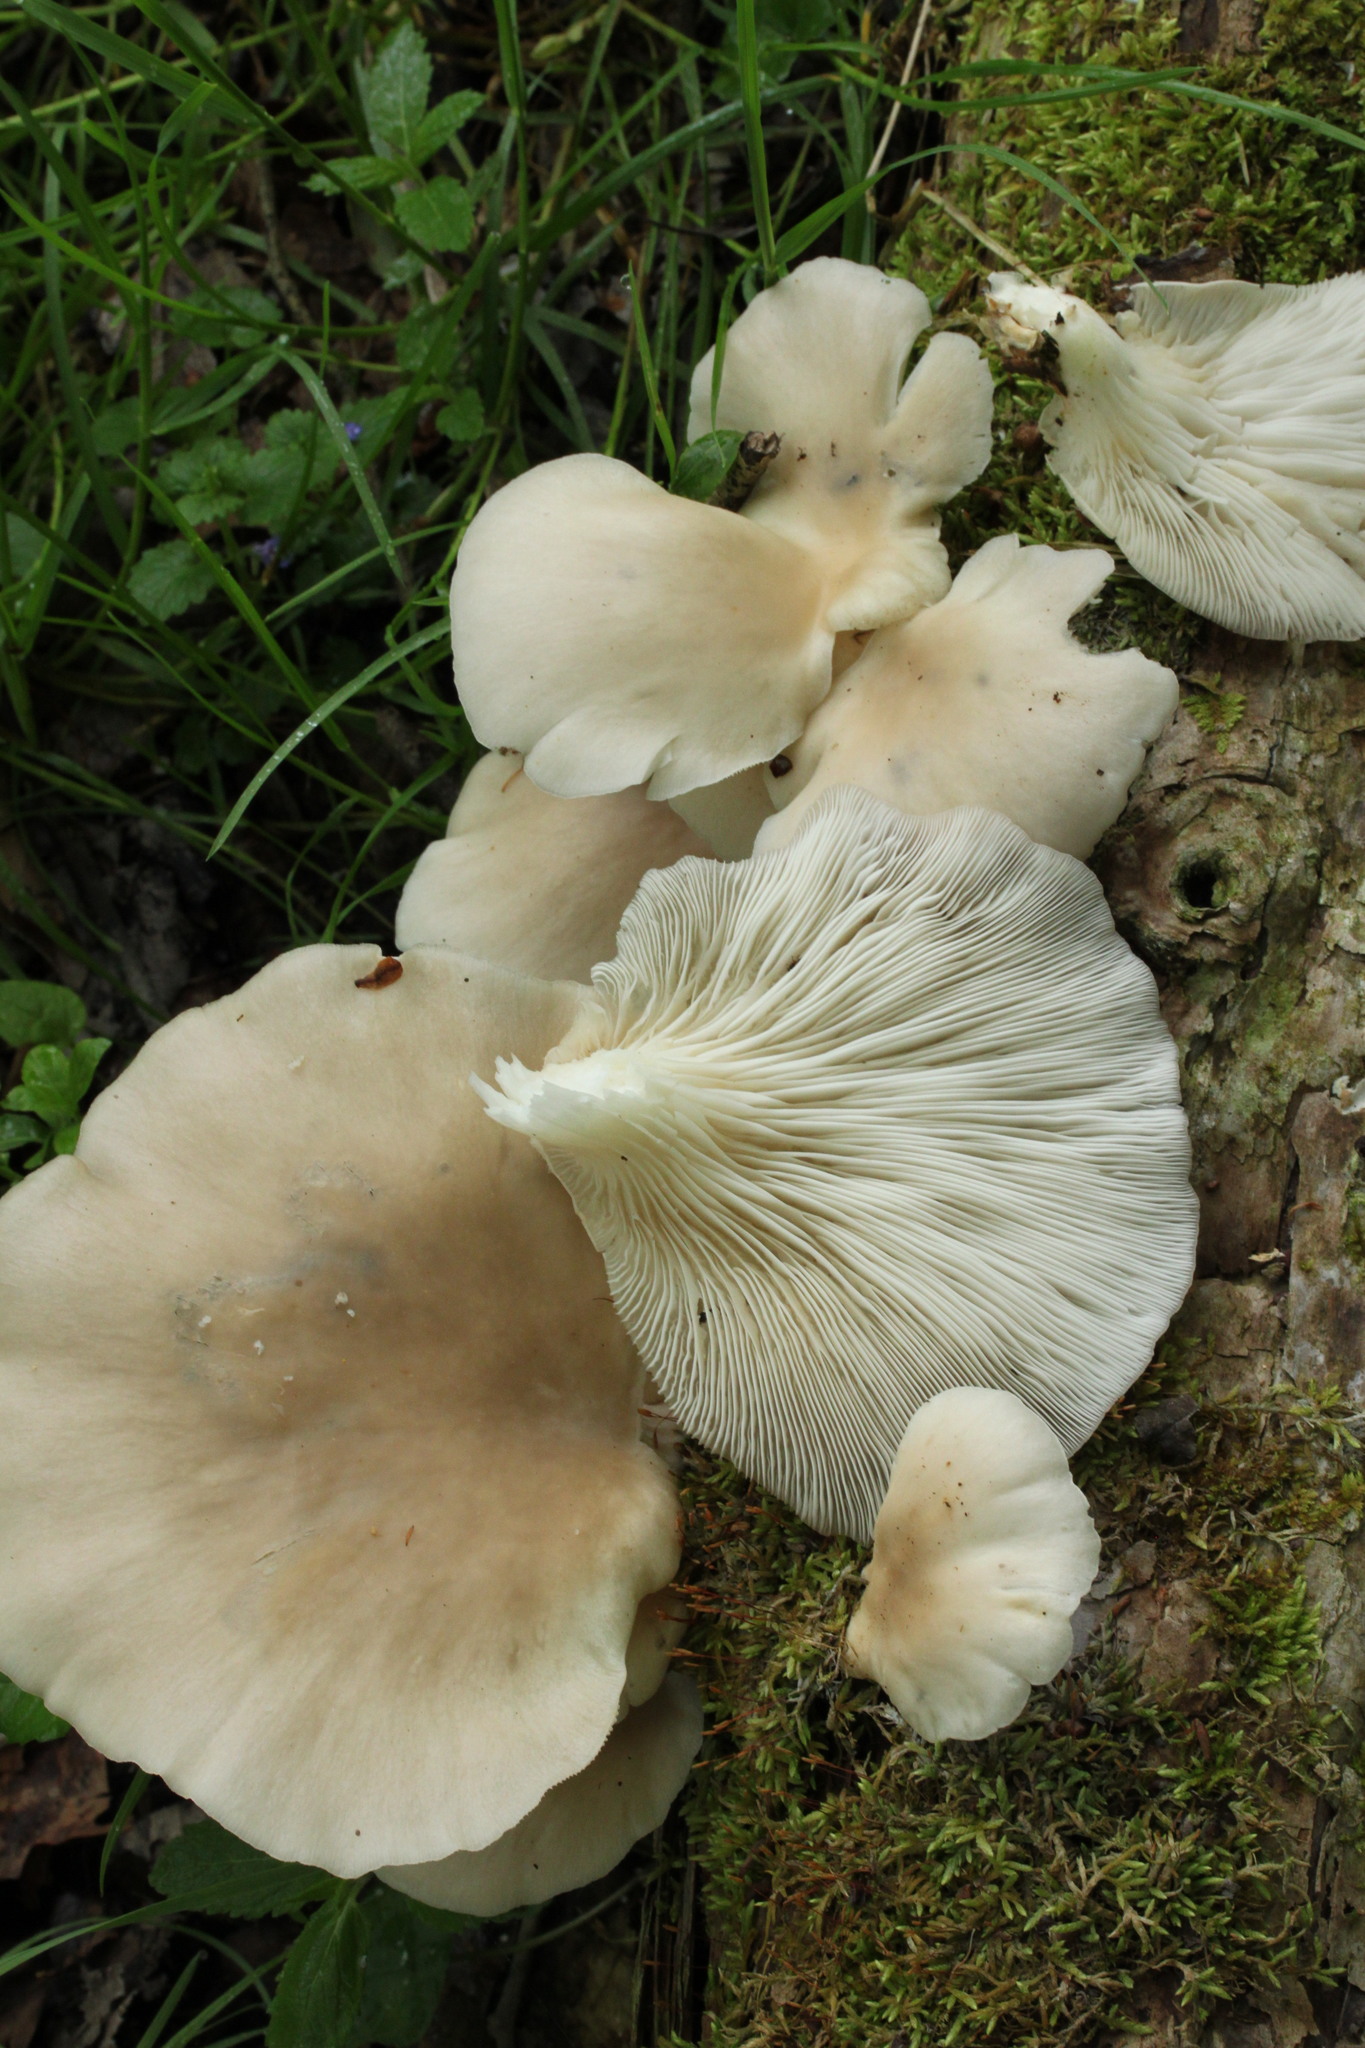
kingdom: Fungi
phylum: Basidiomycota
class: Agaricomycetes
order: Agaricales
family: Pleurotaceae
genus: Pleurotus
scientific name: Pleurotus pulmonarius
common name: Pale oyster
